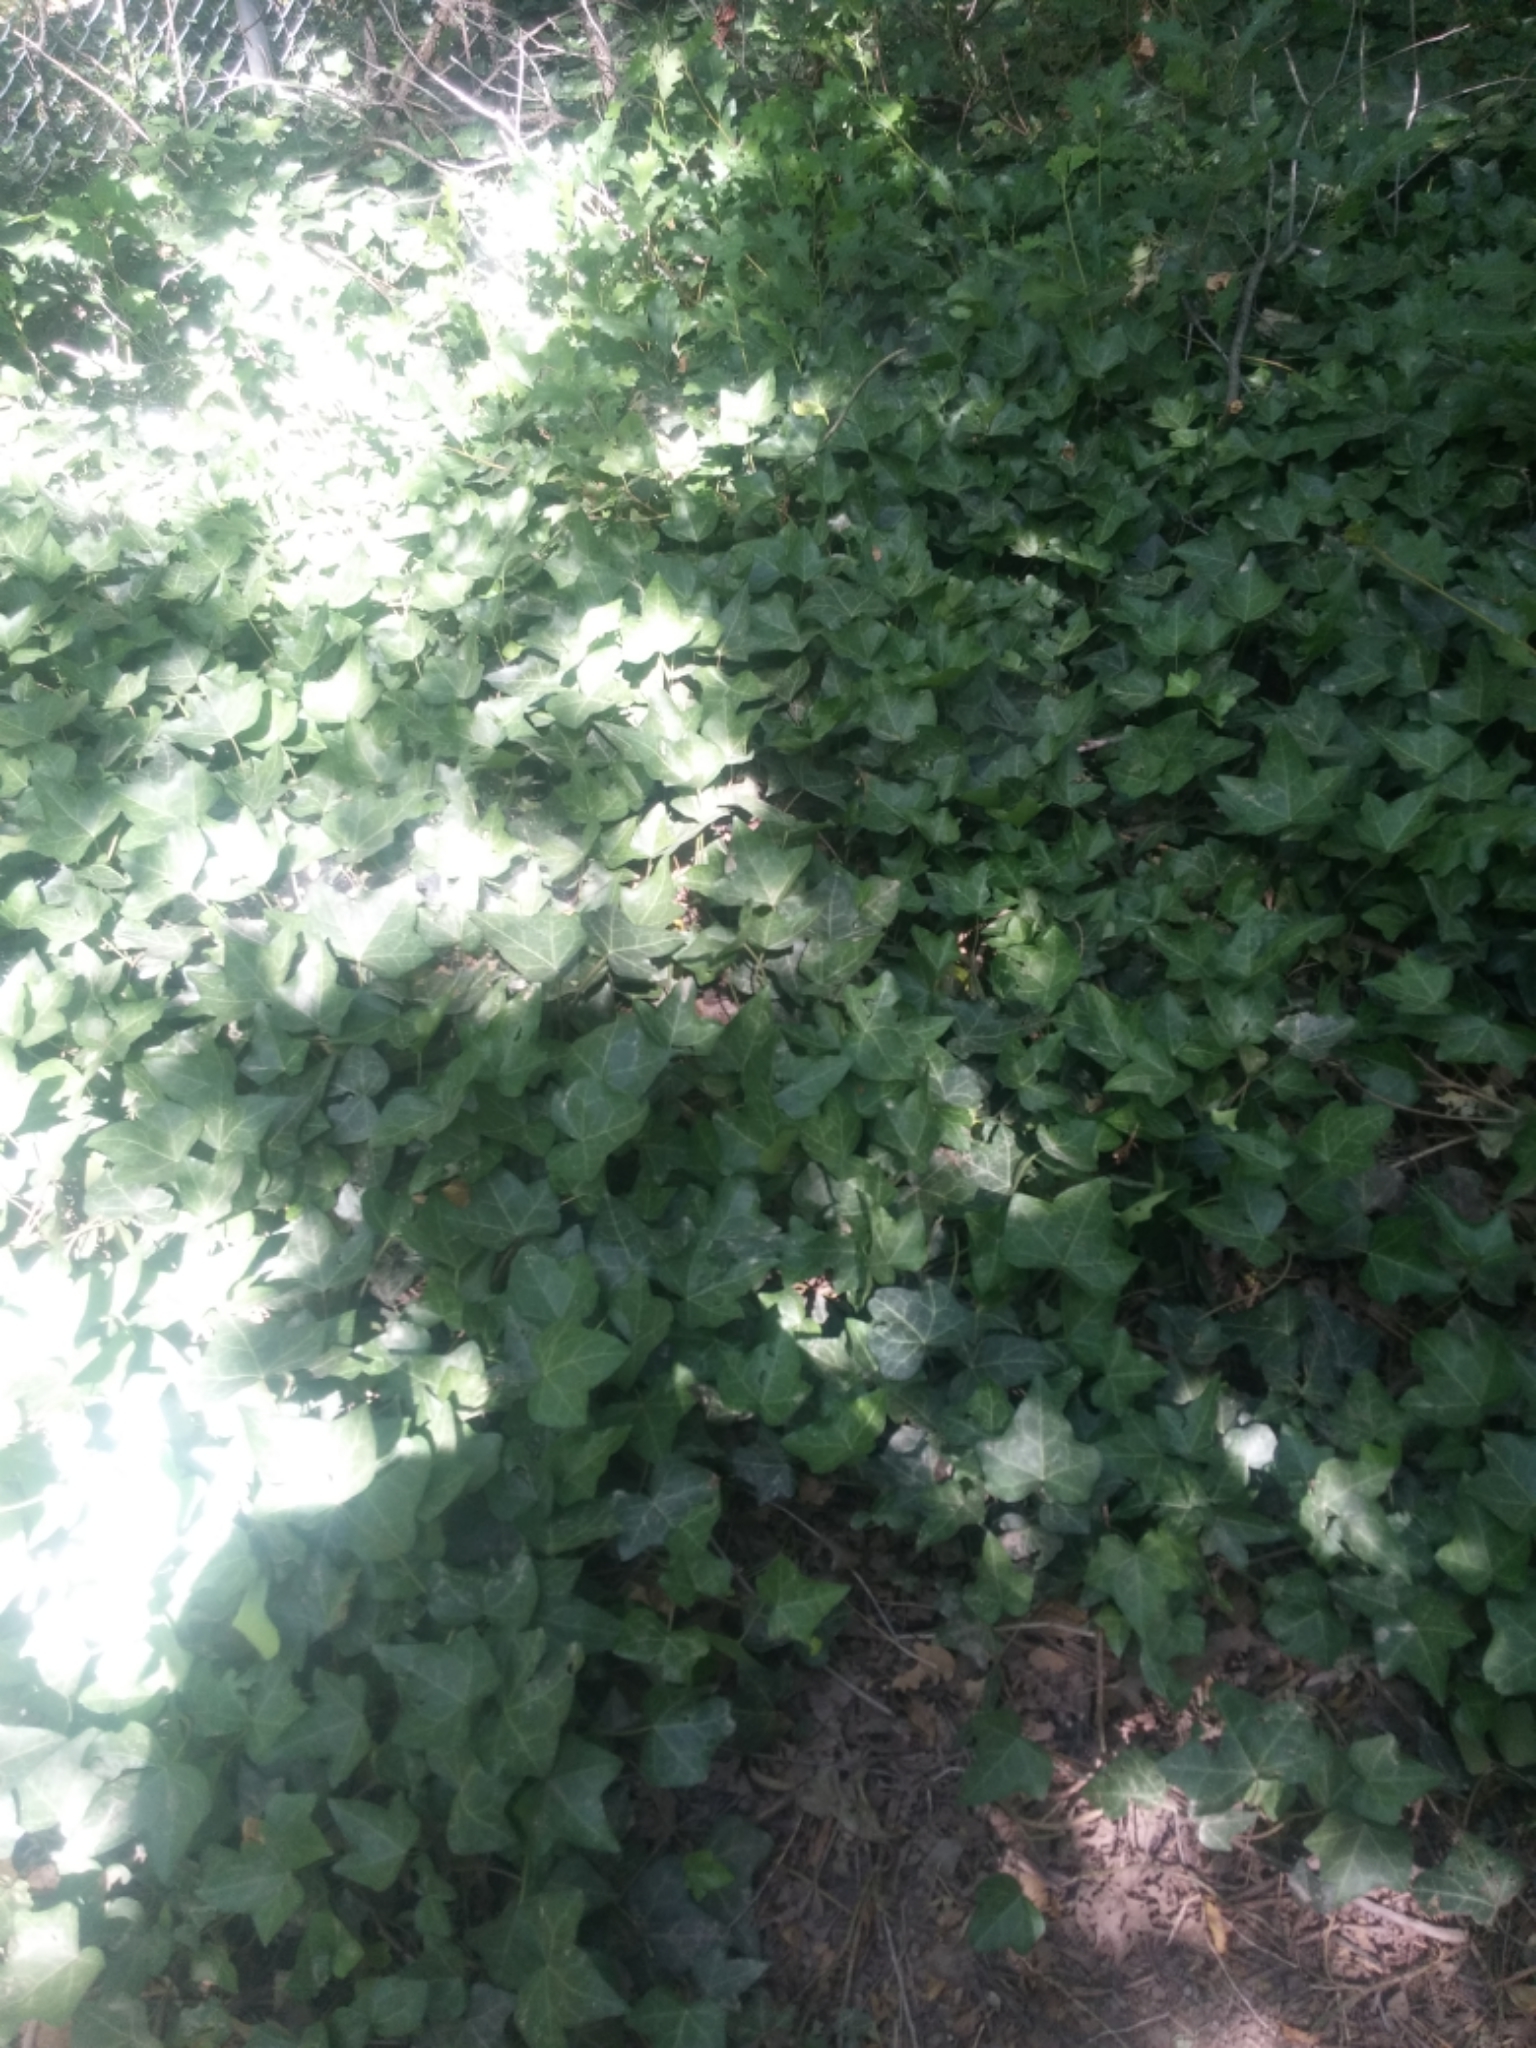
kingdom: Plantae
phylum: Tracheophyta
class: Magnoliopsida
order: Apiales
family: Araliaceae
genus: Hedera
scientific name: Hedera helix
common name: Ivy
